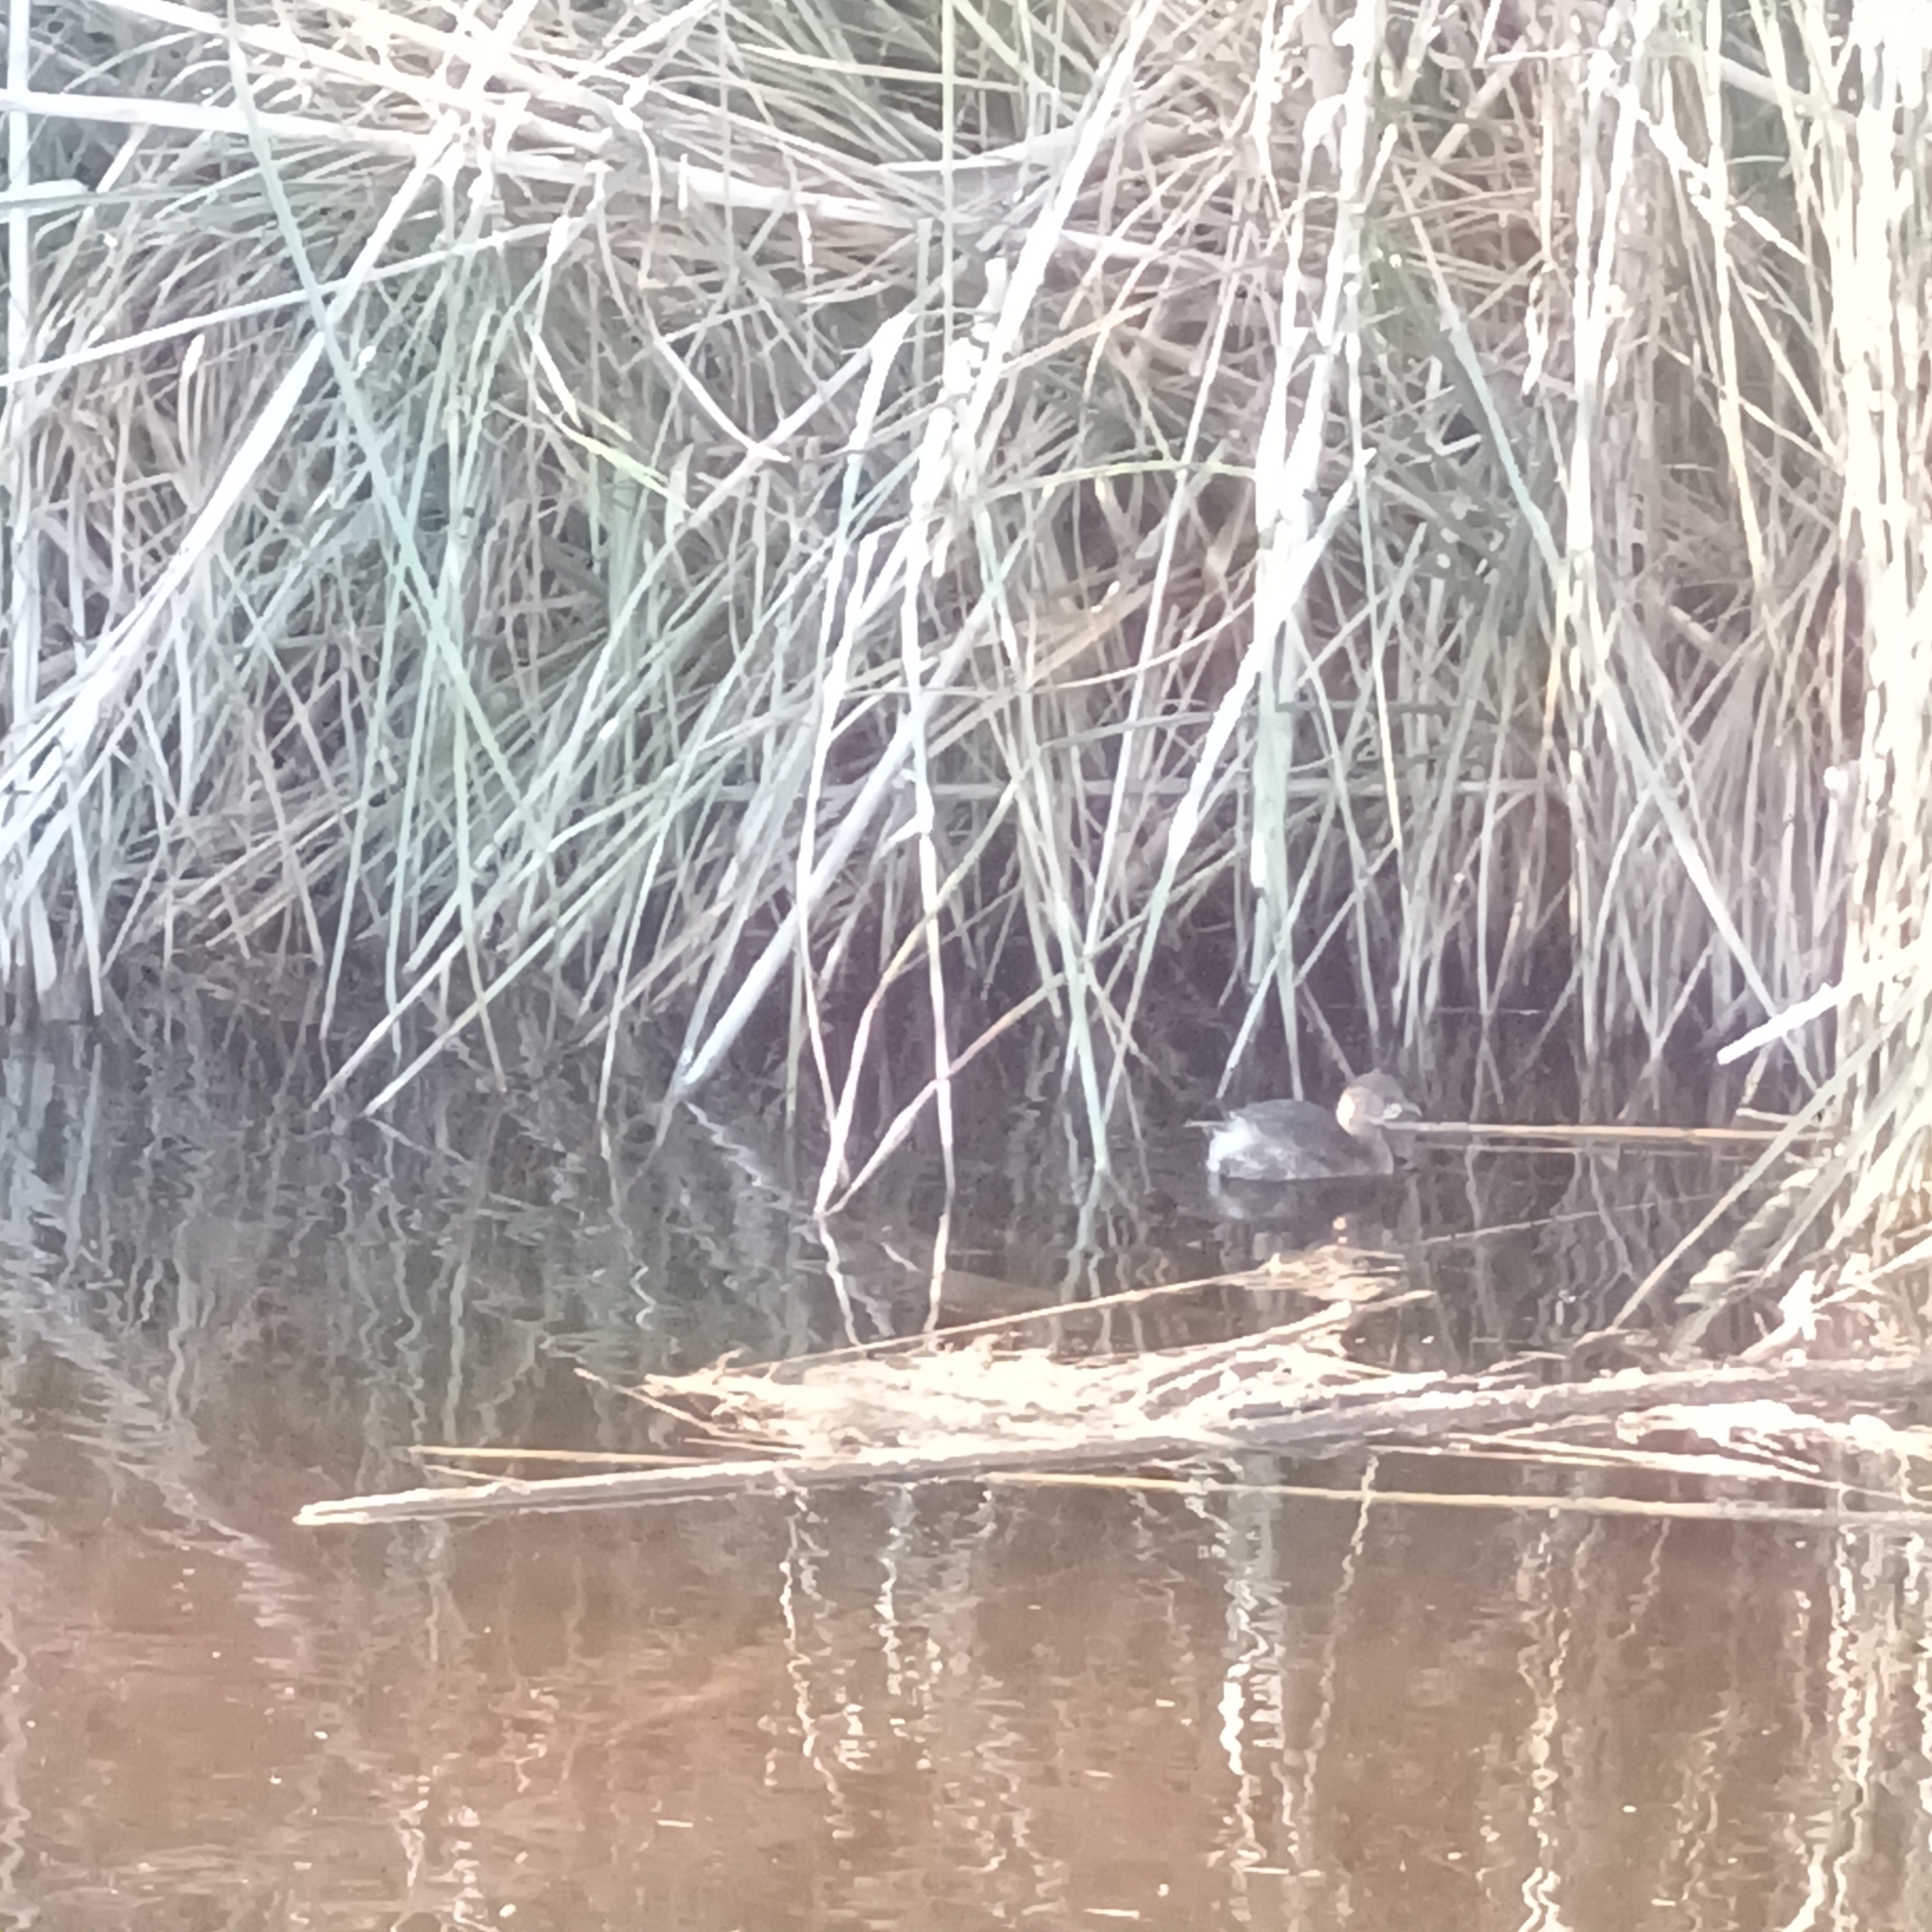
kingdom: Animalia
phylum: Chordata
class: Aves
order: Podicipediformes
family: Podicipedidae
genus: Tachybaptus
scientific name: Tachybaptus ruficollis
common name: Little grebe
